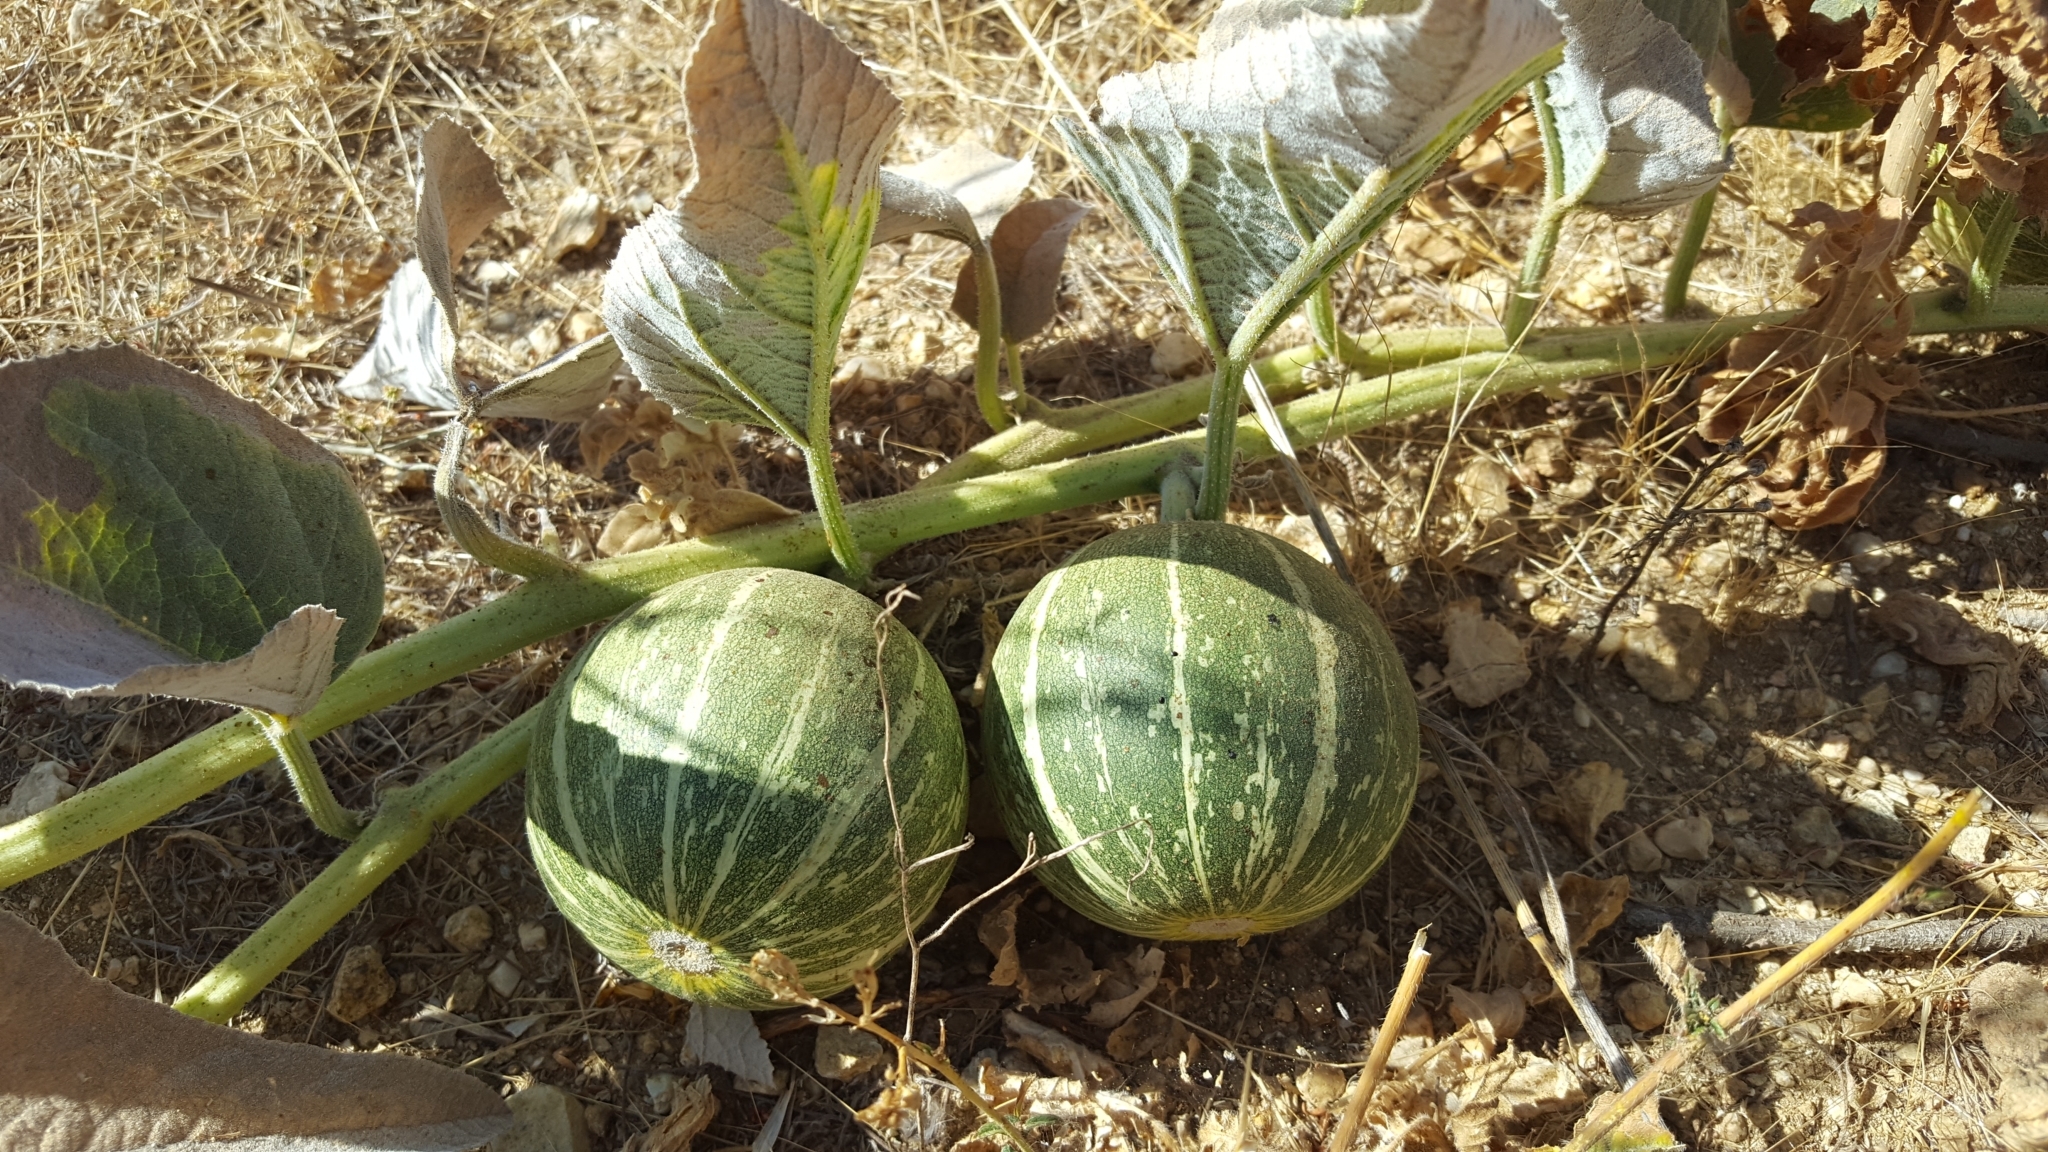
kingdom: Plantae
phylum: Tracheophyta
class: Magnoliopsida
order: Cucurbitales
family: Cucurbitaceae
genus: Cucurbita
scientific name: Cucurbita foetidissima
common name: Buffalo gourd
